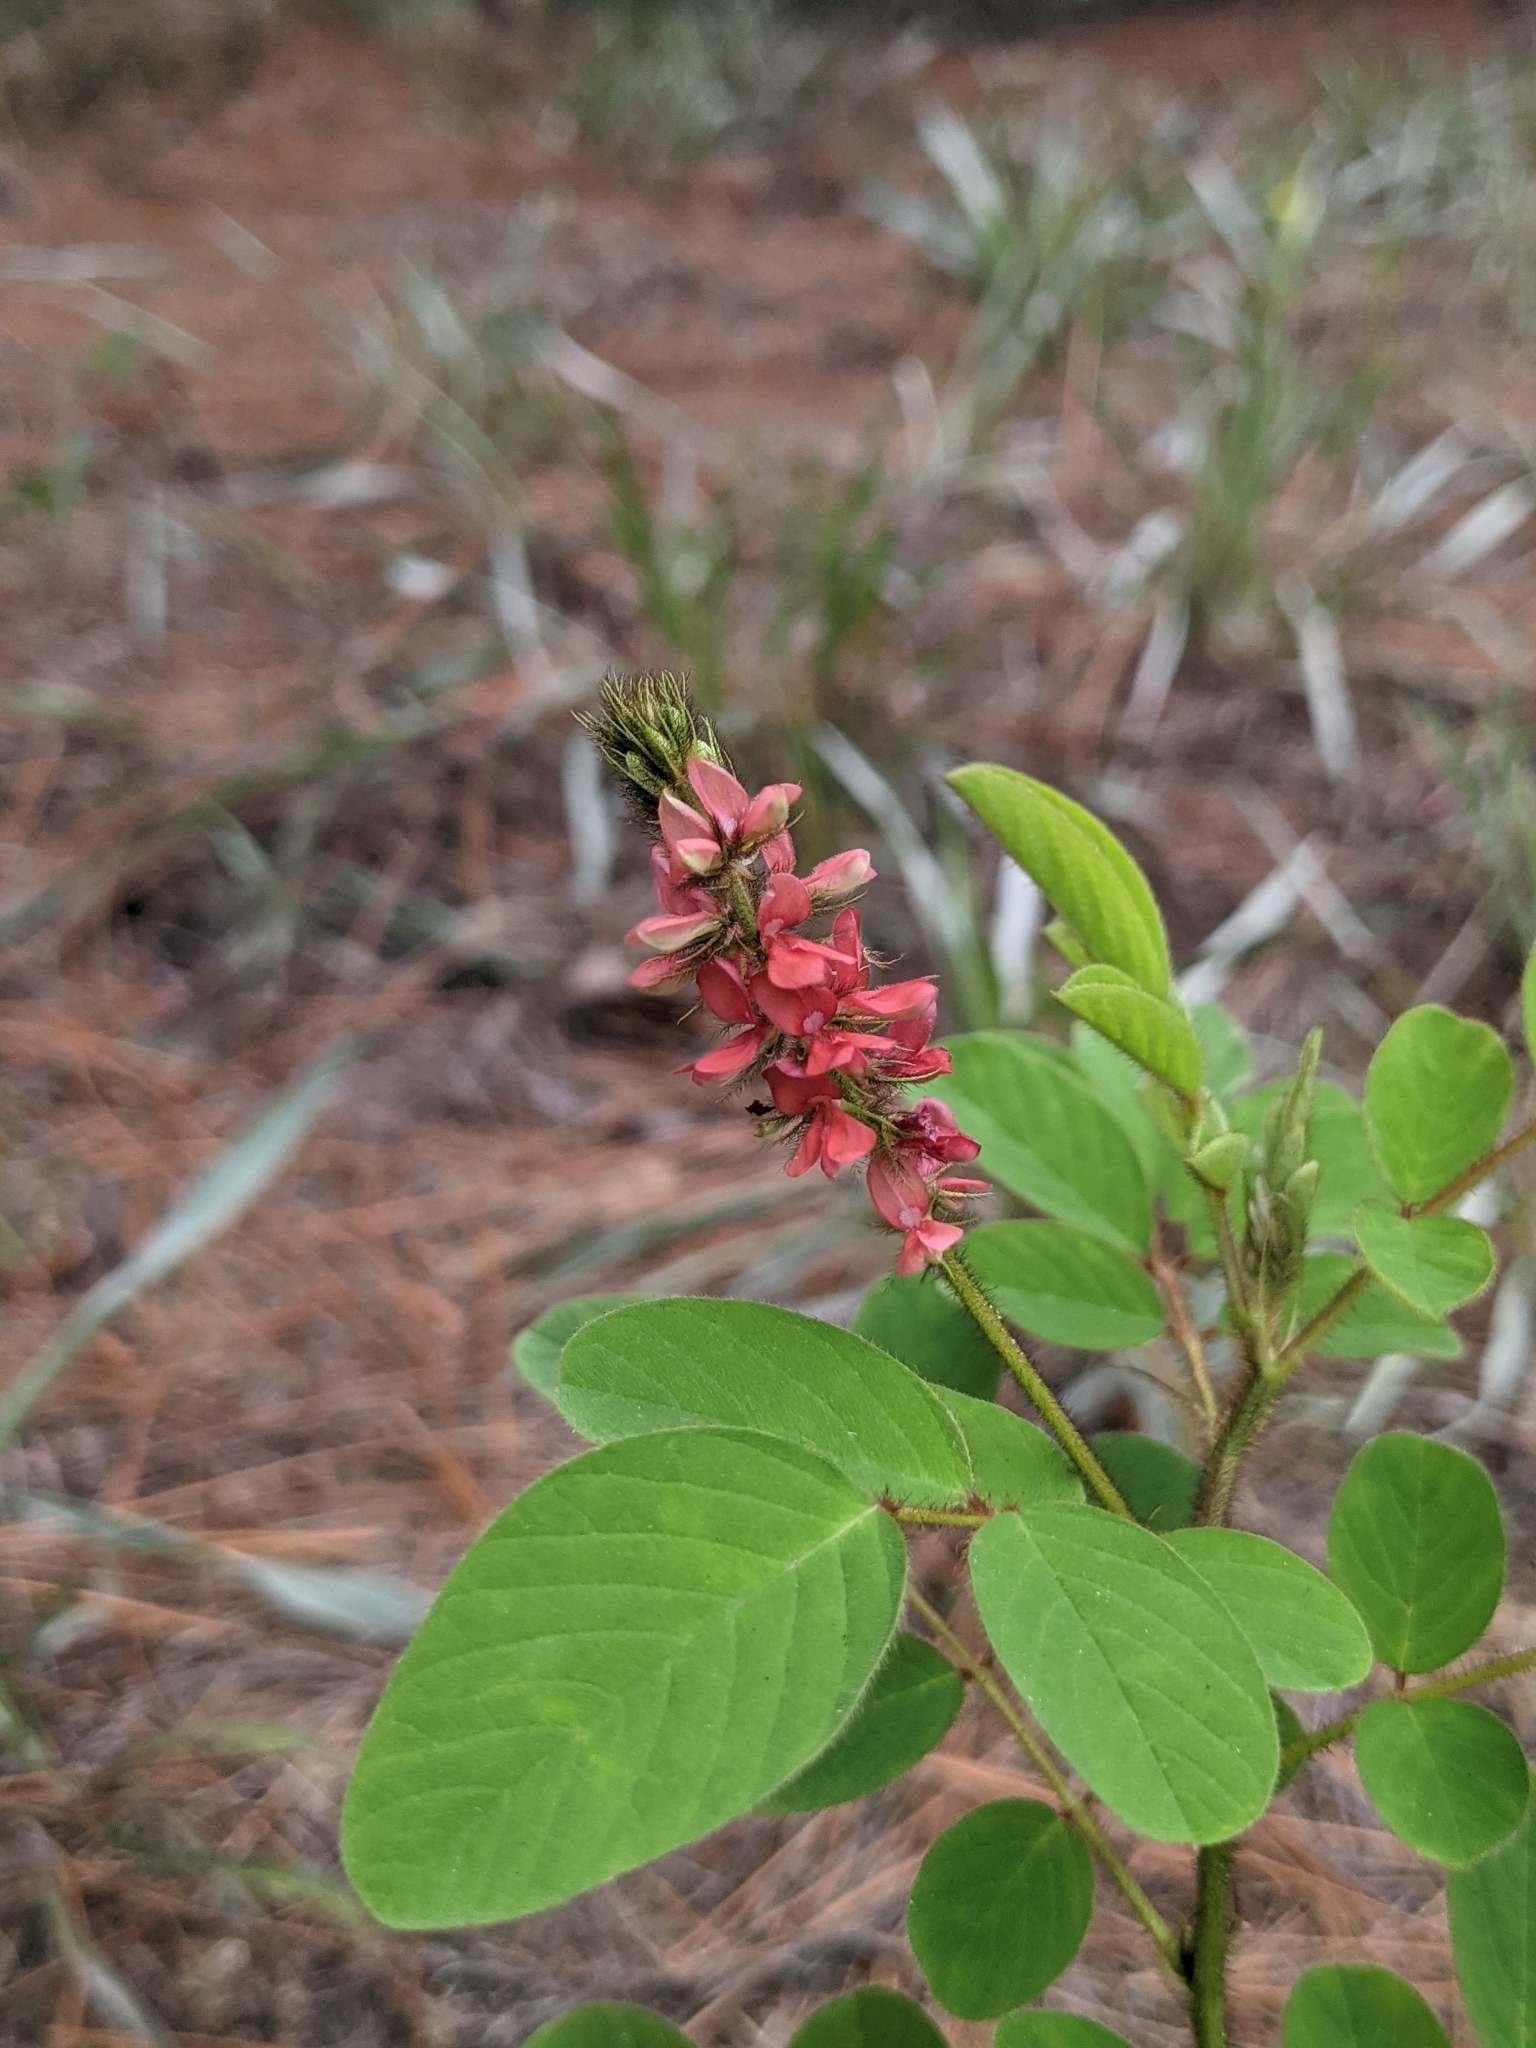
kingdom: Plantae
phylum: Tracheophyta
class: Magnoliopsida
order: Fabales
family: Fabaceae
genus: Indigofera
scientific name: Indigofera hirsuta
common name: Hairy indigo
